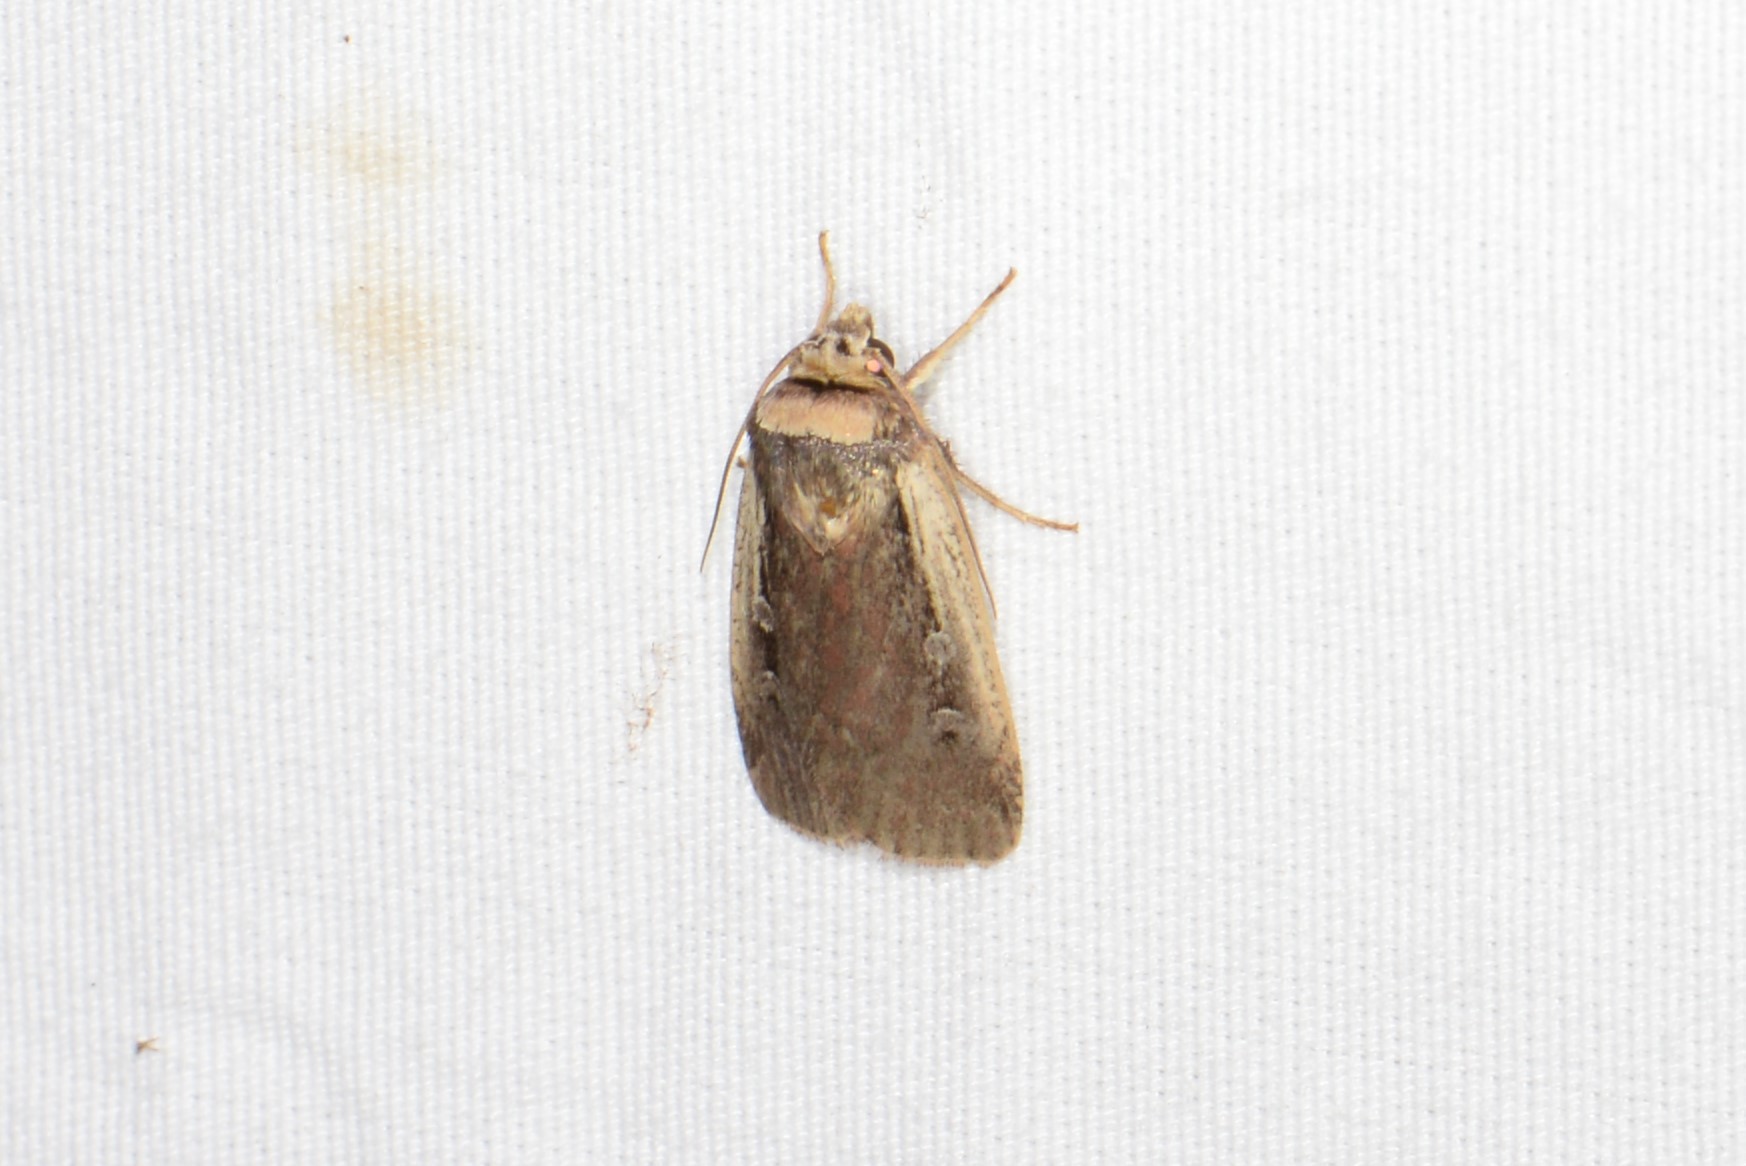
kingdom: Animalia
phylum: Arthropoda
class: Insecta
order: Lepidoptera
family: Noctuidae
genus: Ochropleura
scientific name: Ochropleura implecta
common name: Flame-shouldered dart
